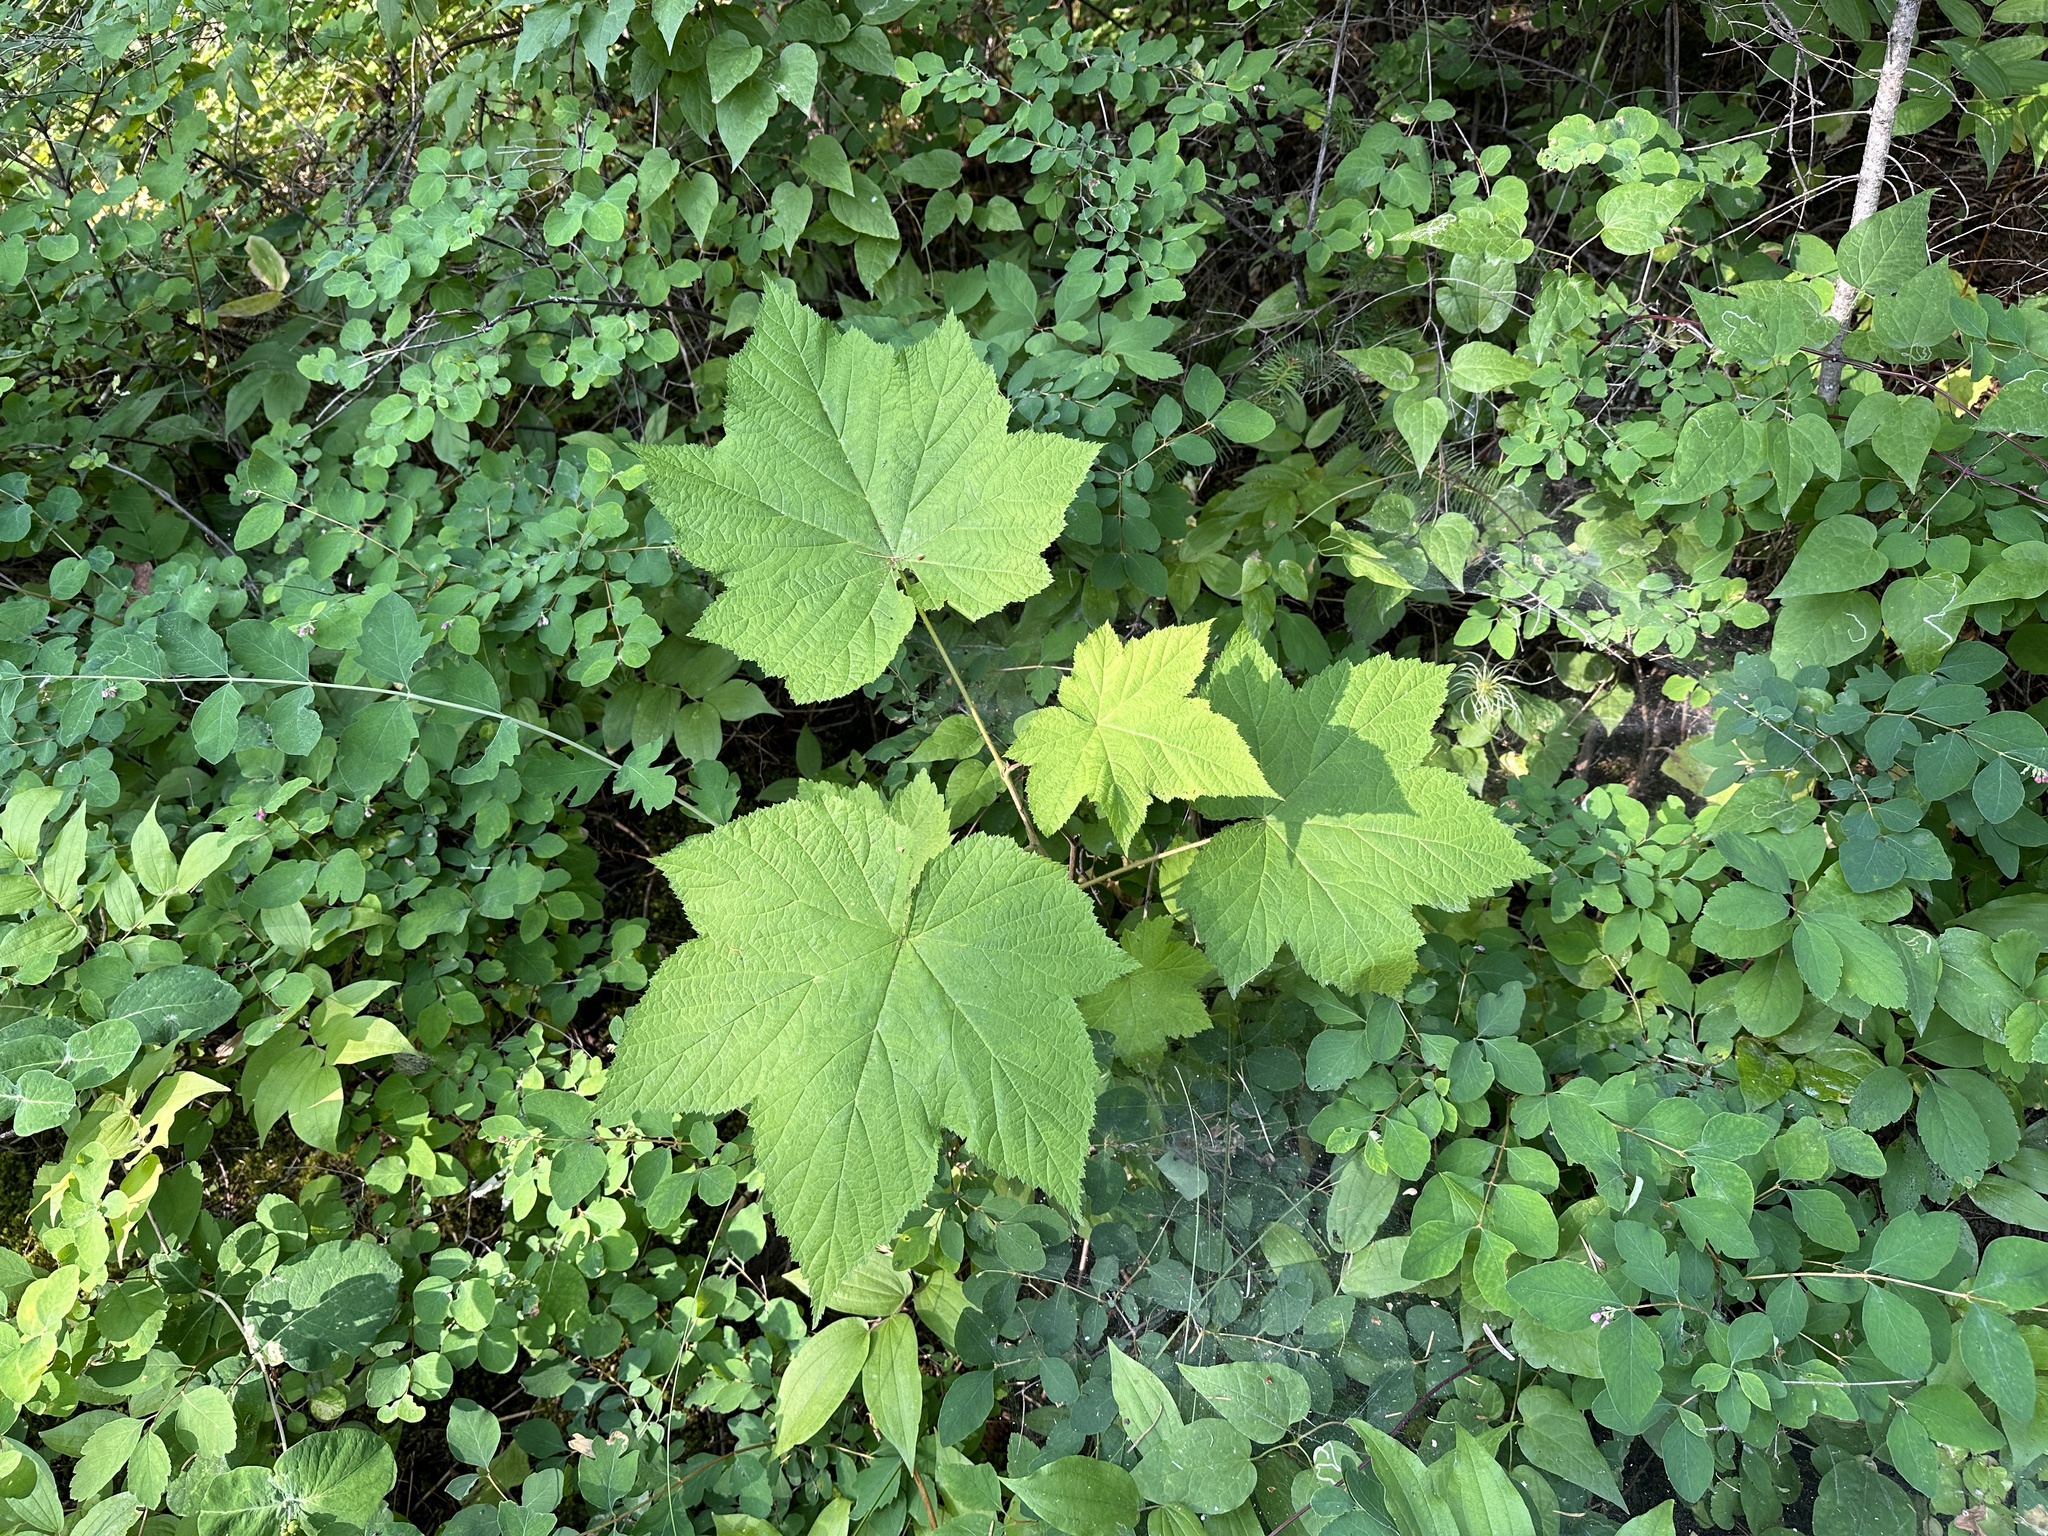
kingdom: Plantae
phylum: Tracheophyta
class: Magnoliopsida
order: Rosales
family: Rosaceae
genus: Rubus
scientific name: Rubus parviflorus
